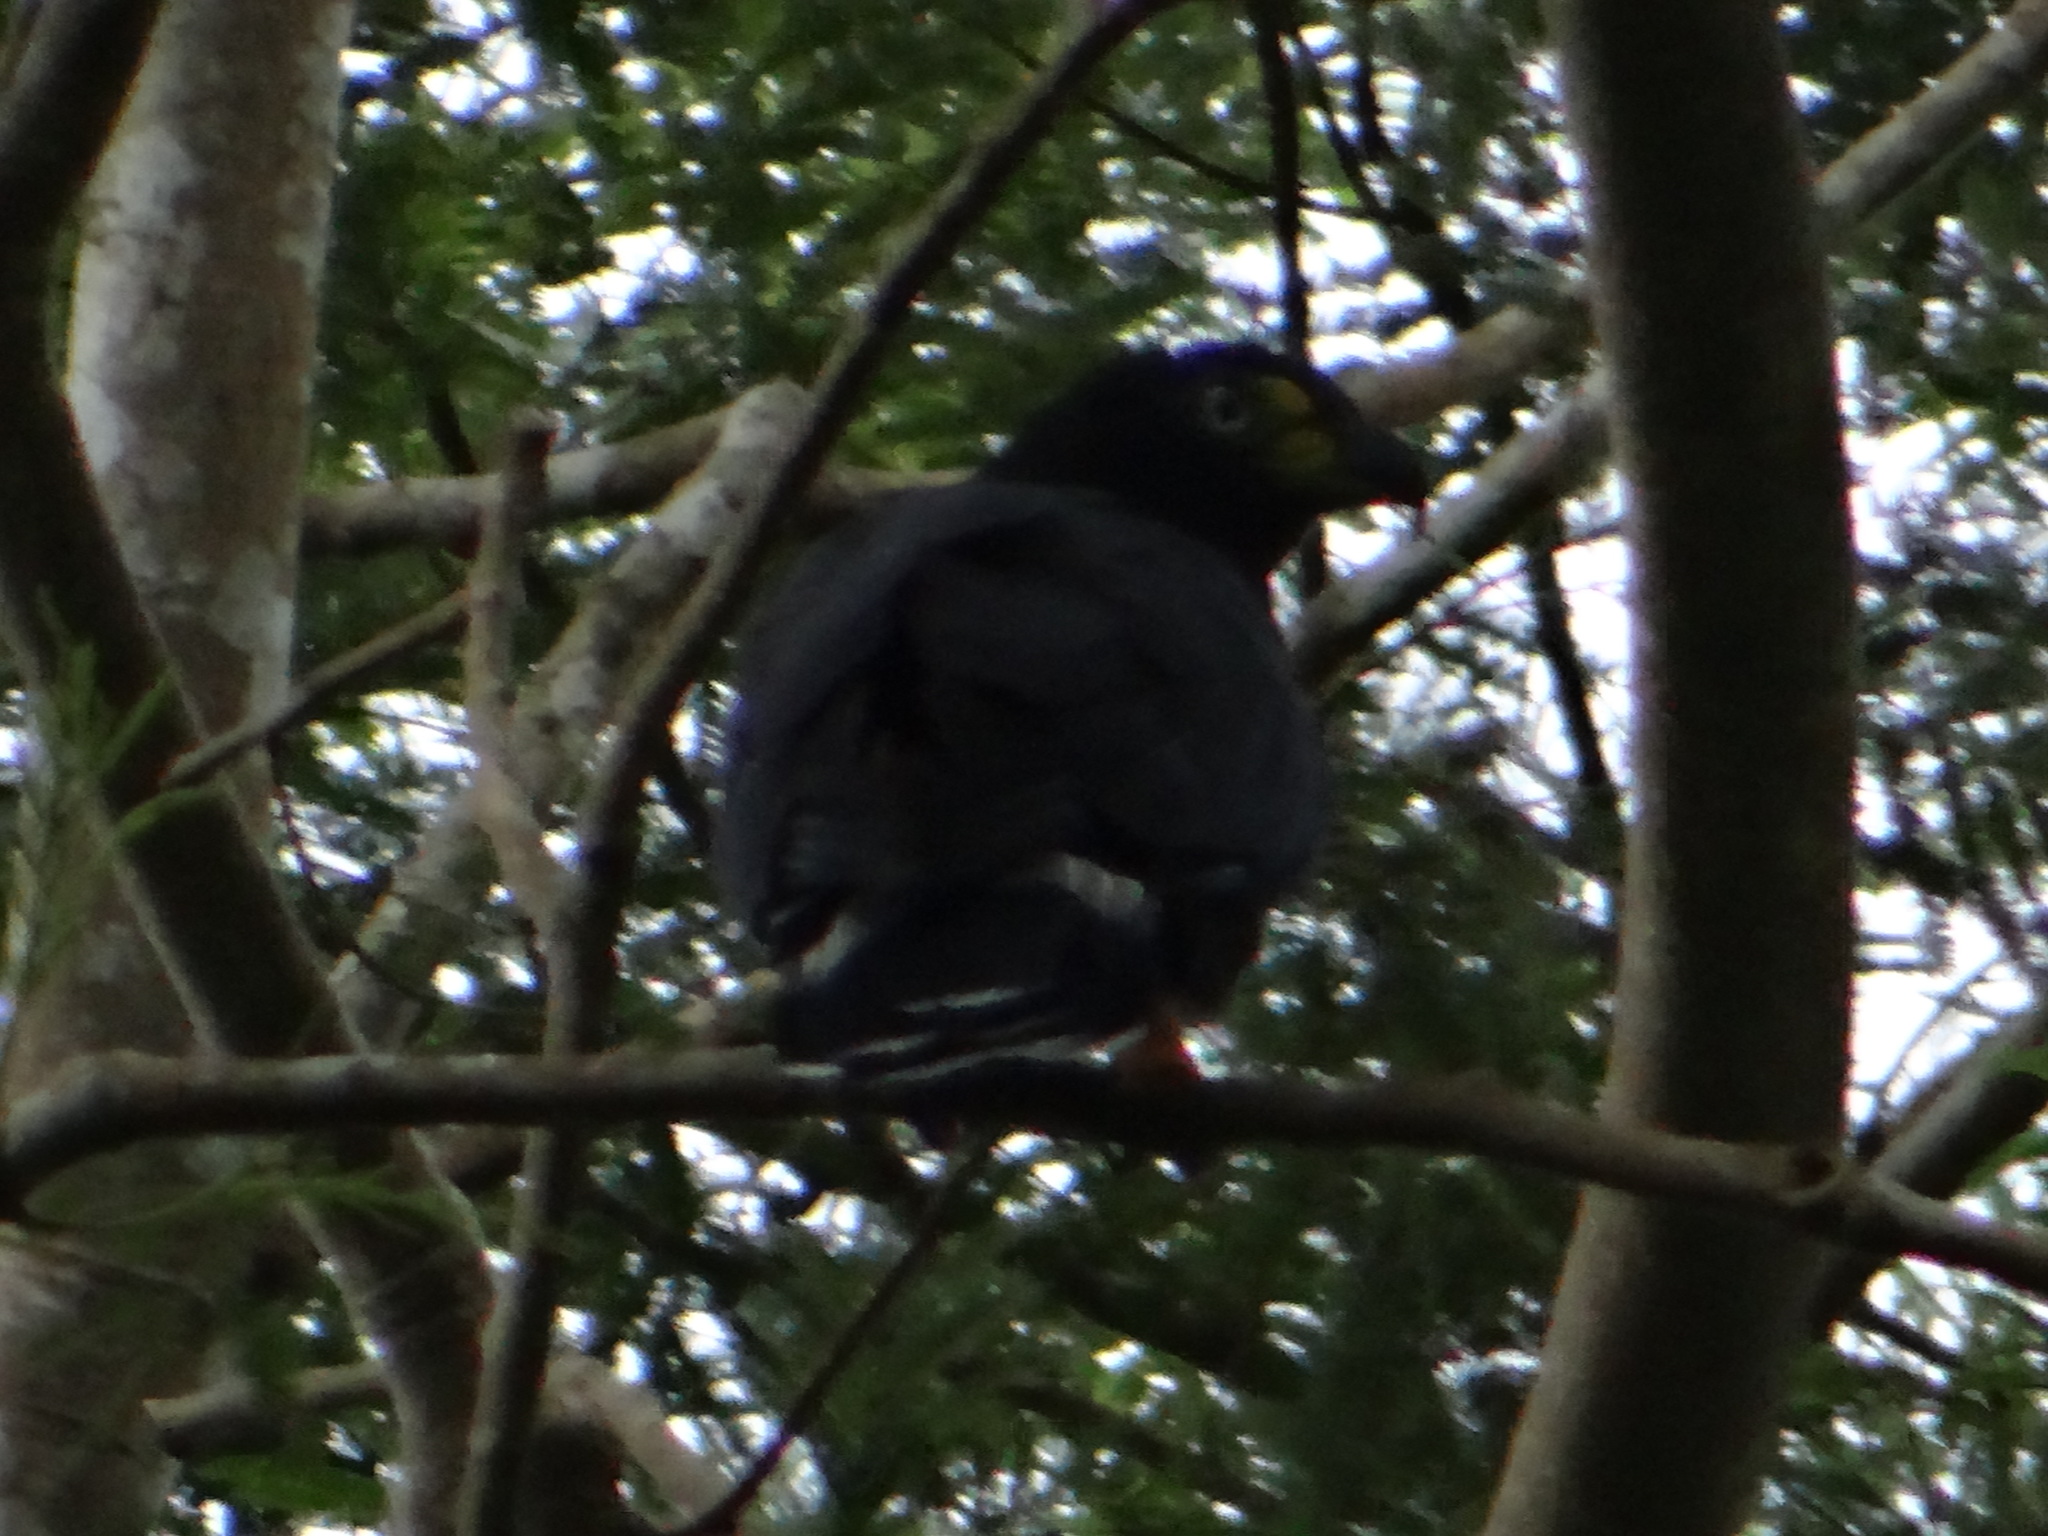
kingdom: Animalia
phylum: Chordata
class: Aves
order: Accipitriformes
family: Accipitridae
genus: Chondrohierax
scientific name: Chondrohierax uncinatus
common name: Hook-billed kite
